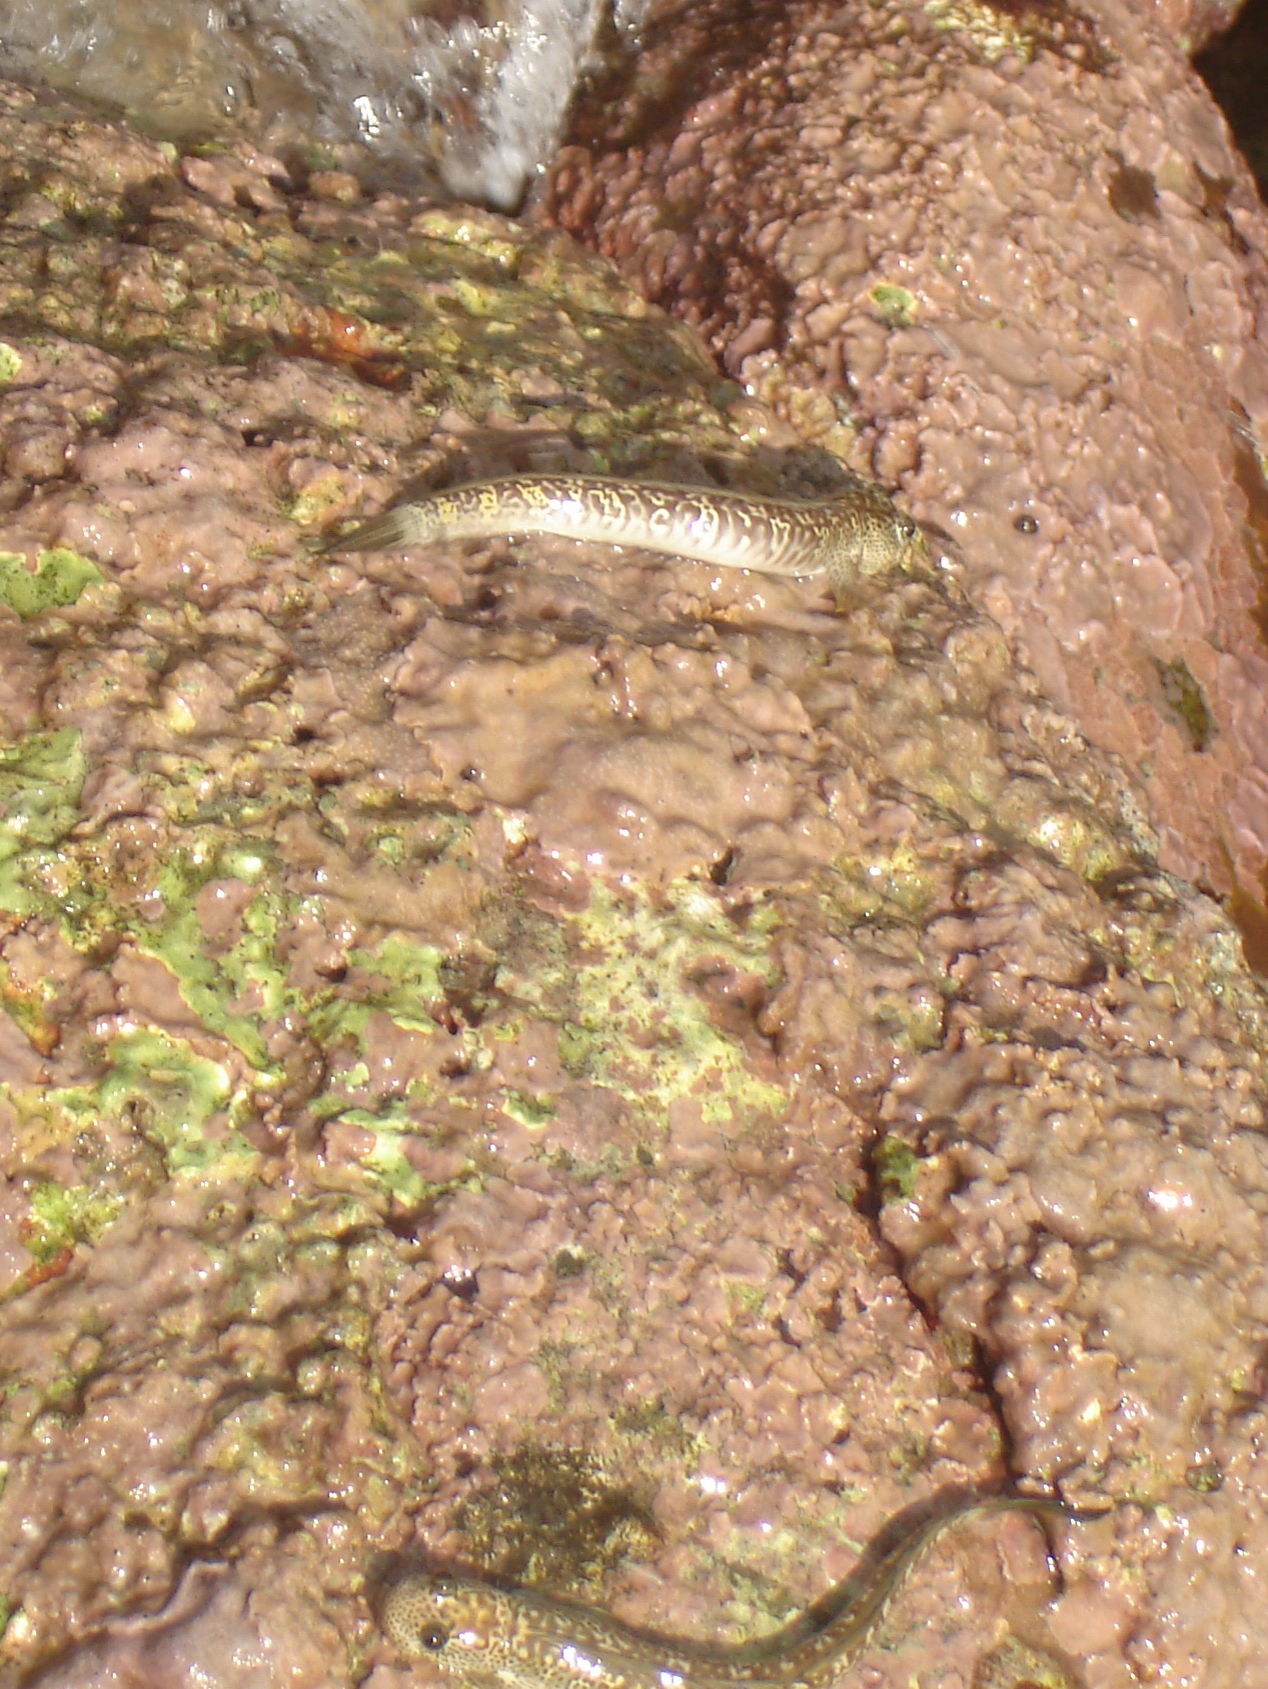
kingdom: Animalia
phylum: Chordata
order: Perciformes
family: Blenniidae
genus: Andamia
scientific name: Andamia heteroptera
